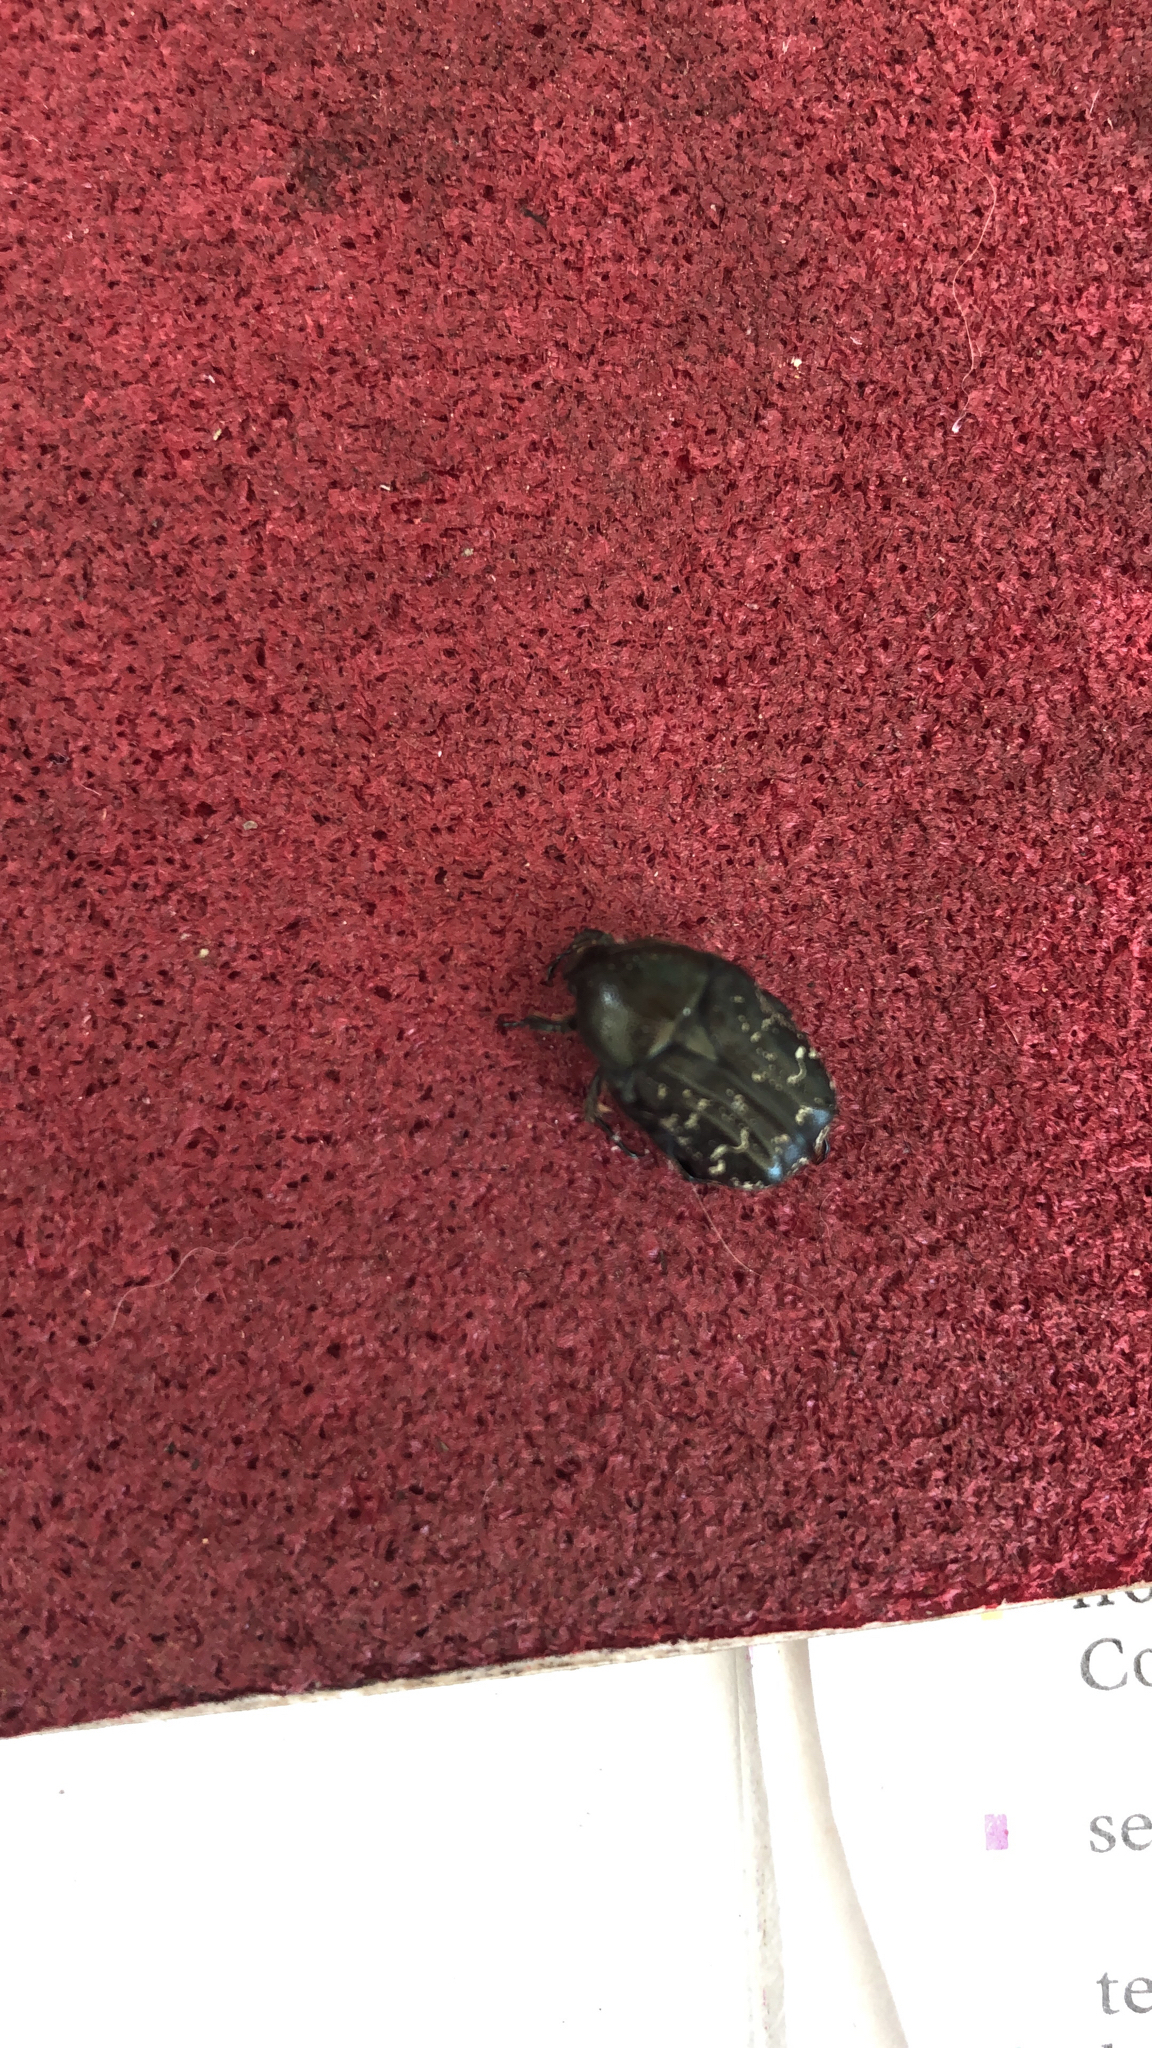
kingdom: Animalia
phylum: Arthropoda
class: Insecta
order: Coleoptera
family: Scarabaeidae
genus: Euphoria
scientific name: Euphoria sepulcralis
